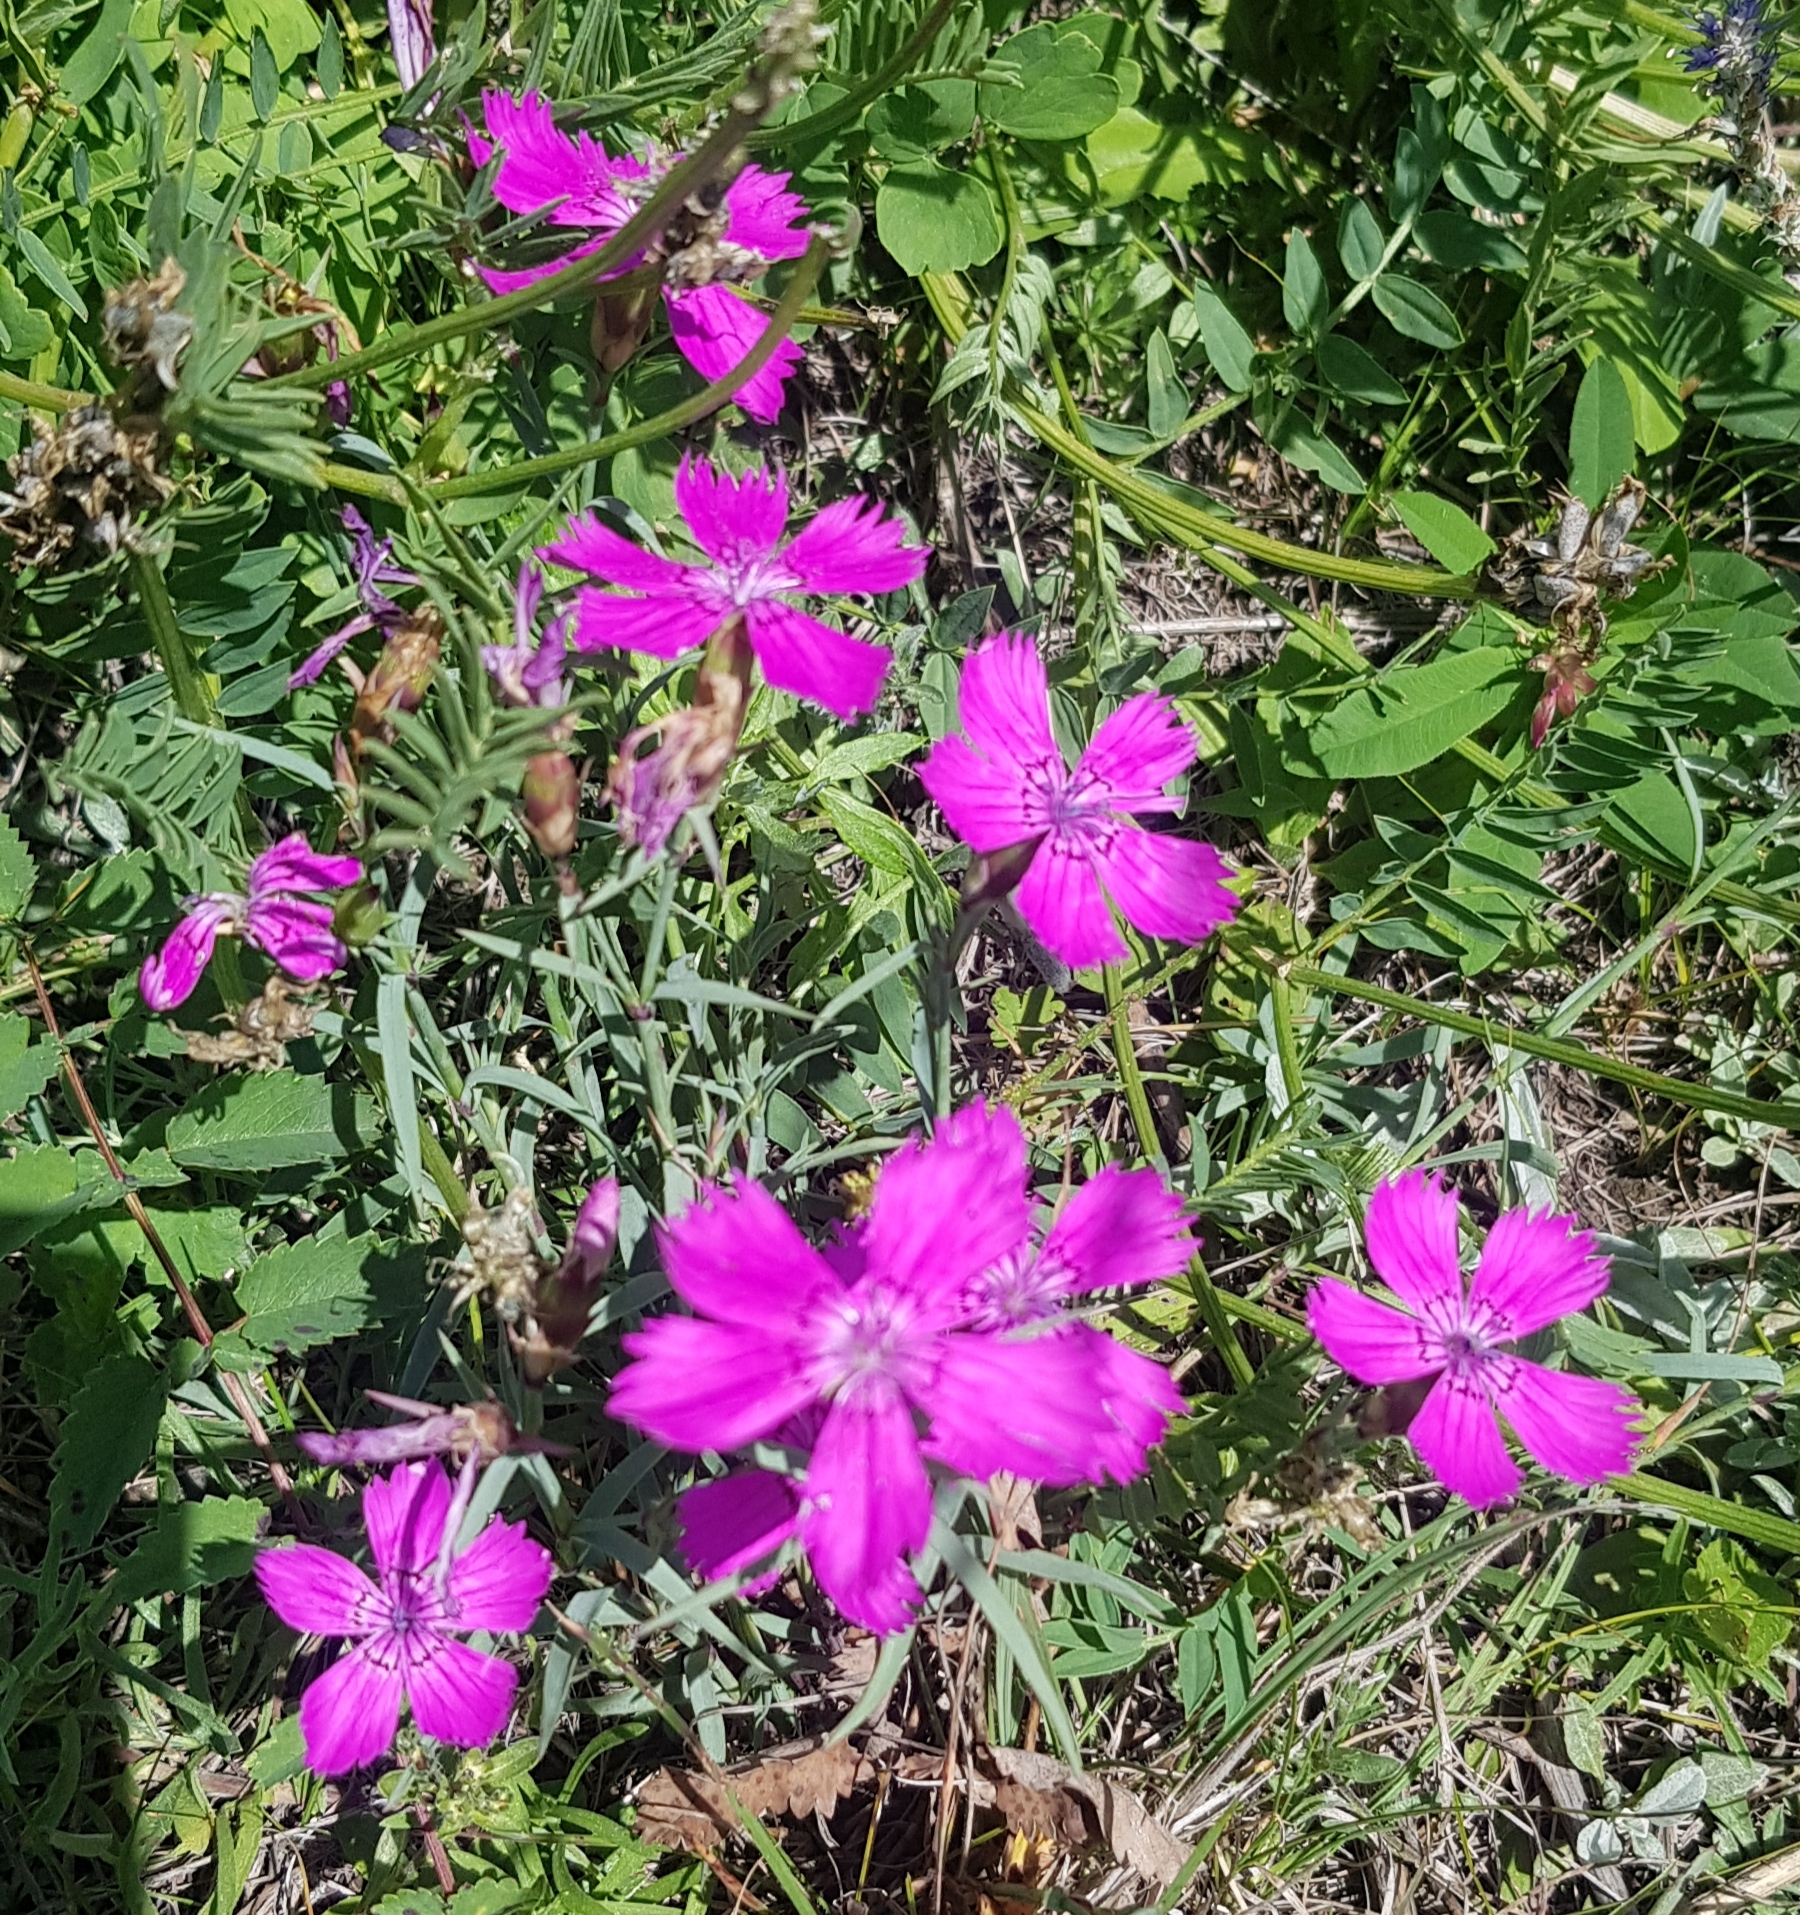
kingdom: Plantae
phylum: Tracheophyta
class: Magnoliopsida
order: Caryophyllales
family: Caryophyllaceae
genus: Dianthus
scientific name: Dianthus chinensis
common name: Rainbow pink
